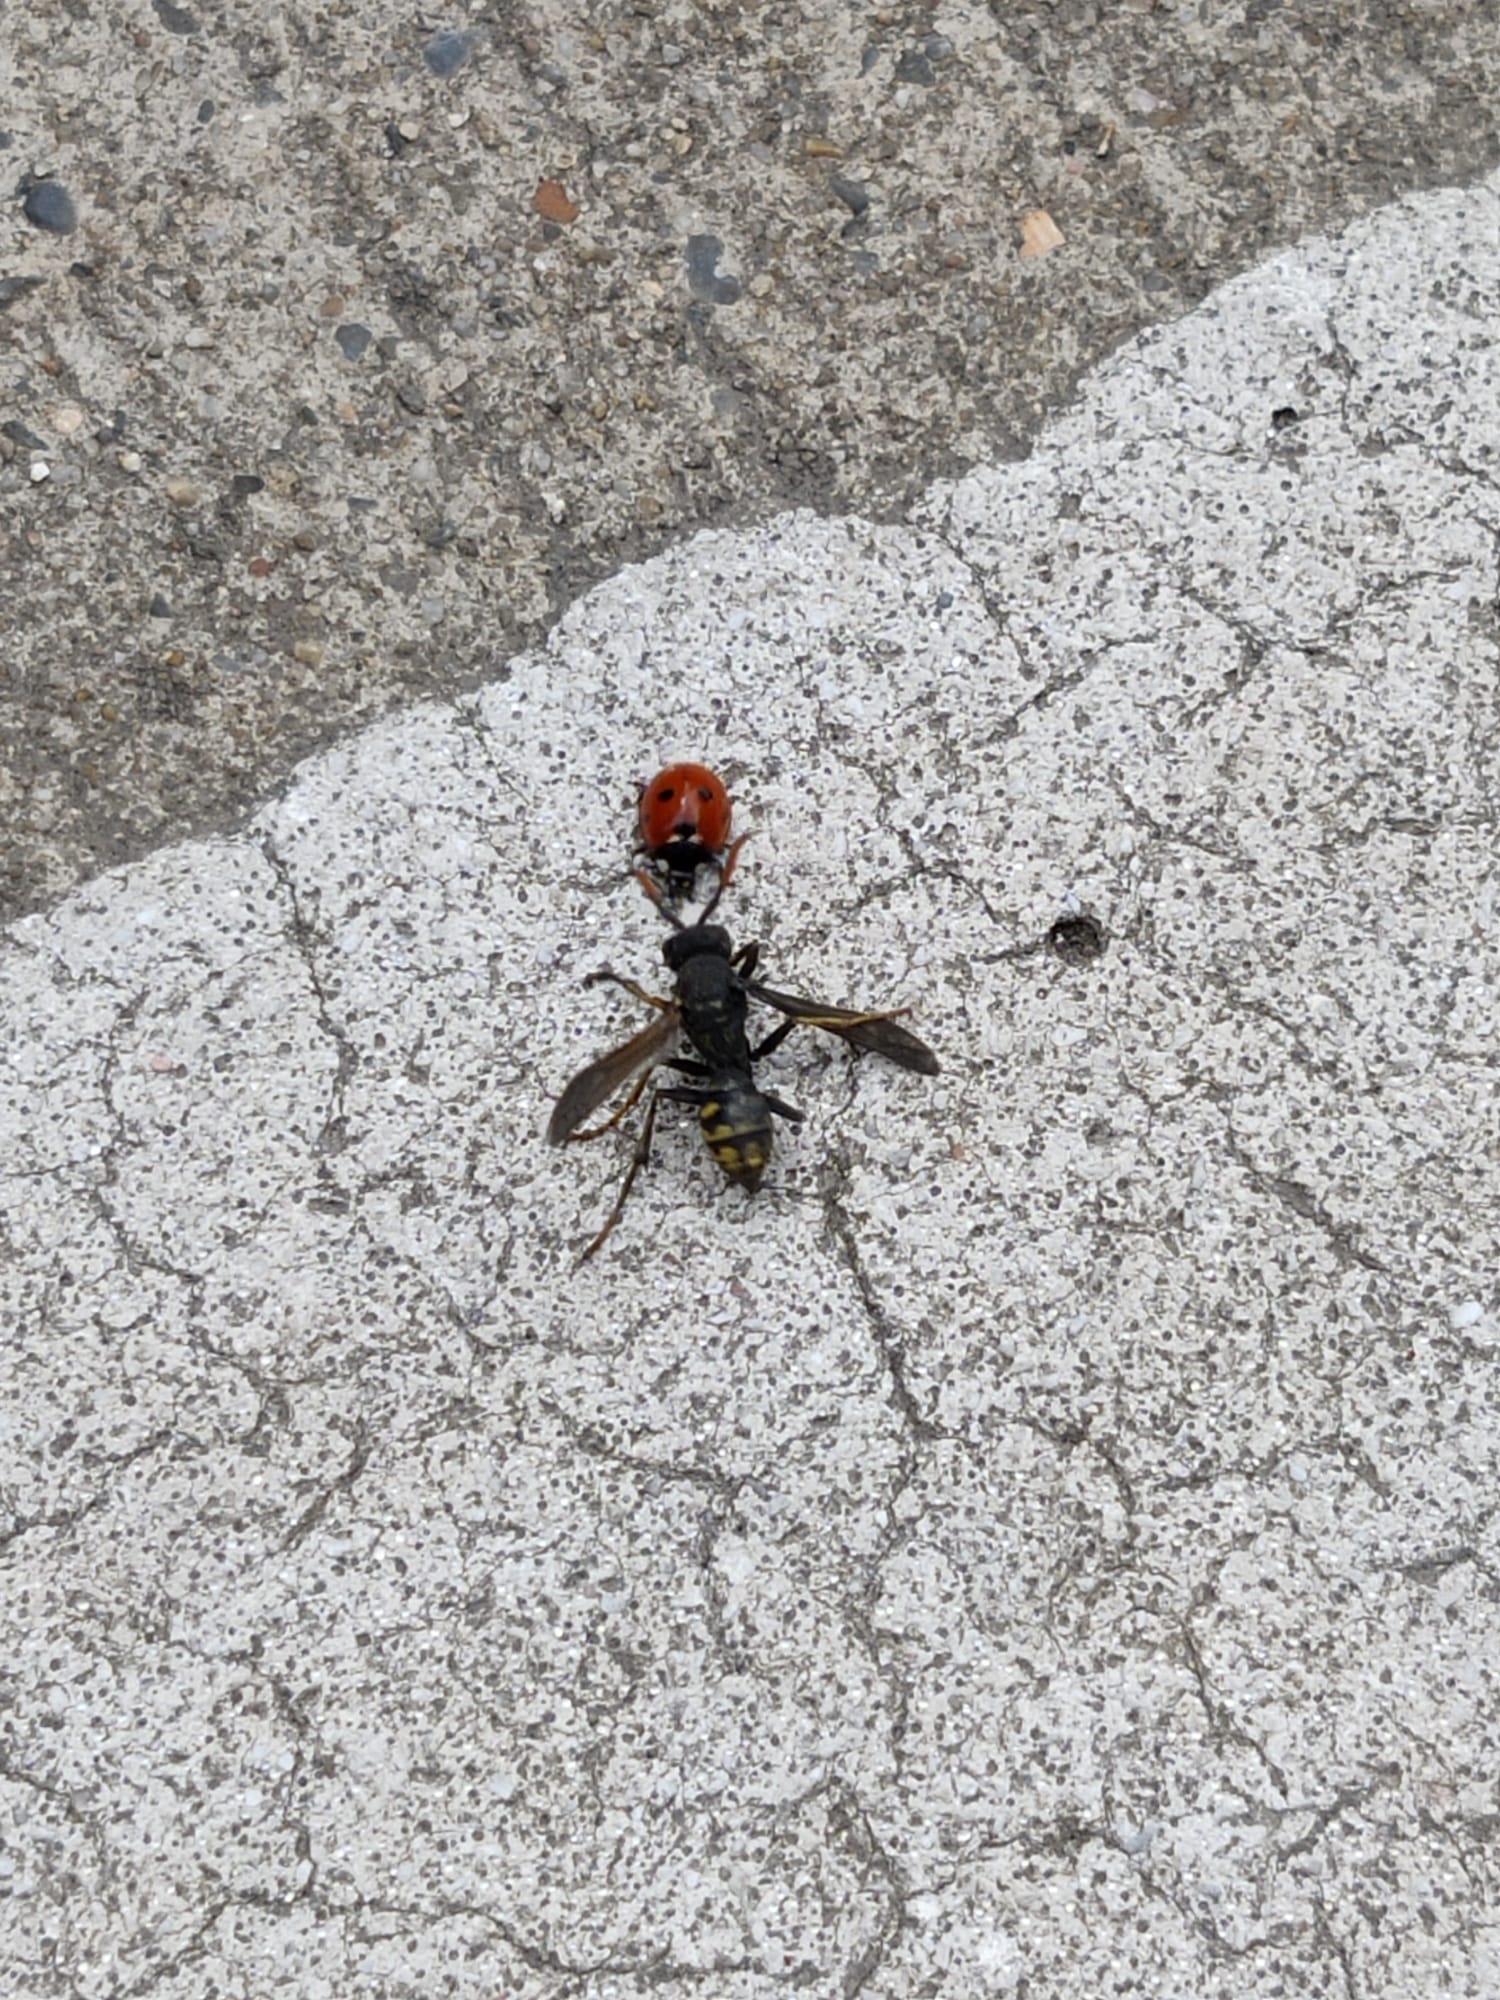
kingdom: Animalia
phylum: Arthropoda
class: Insecta
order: Hymenoptera
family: Eumenidae
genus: Polistes
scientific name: Polistes dominula
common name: Paper wasp
